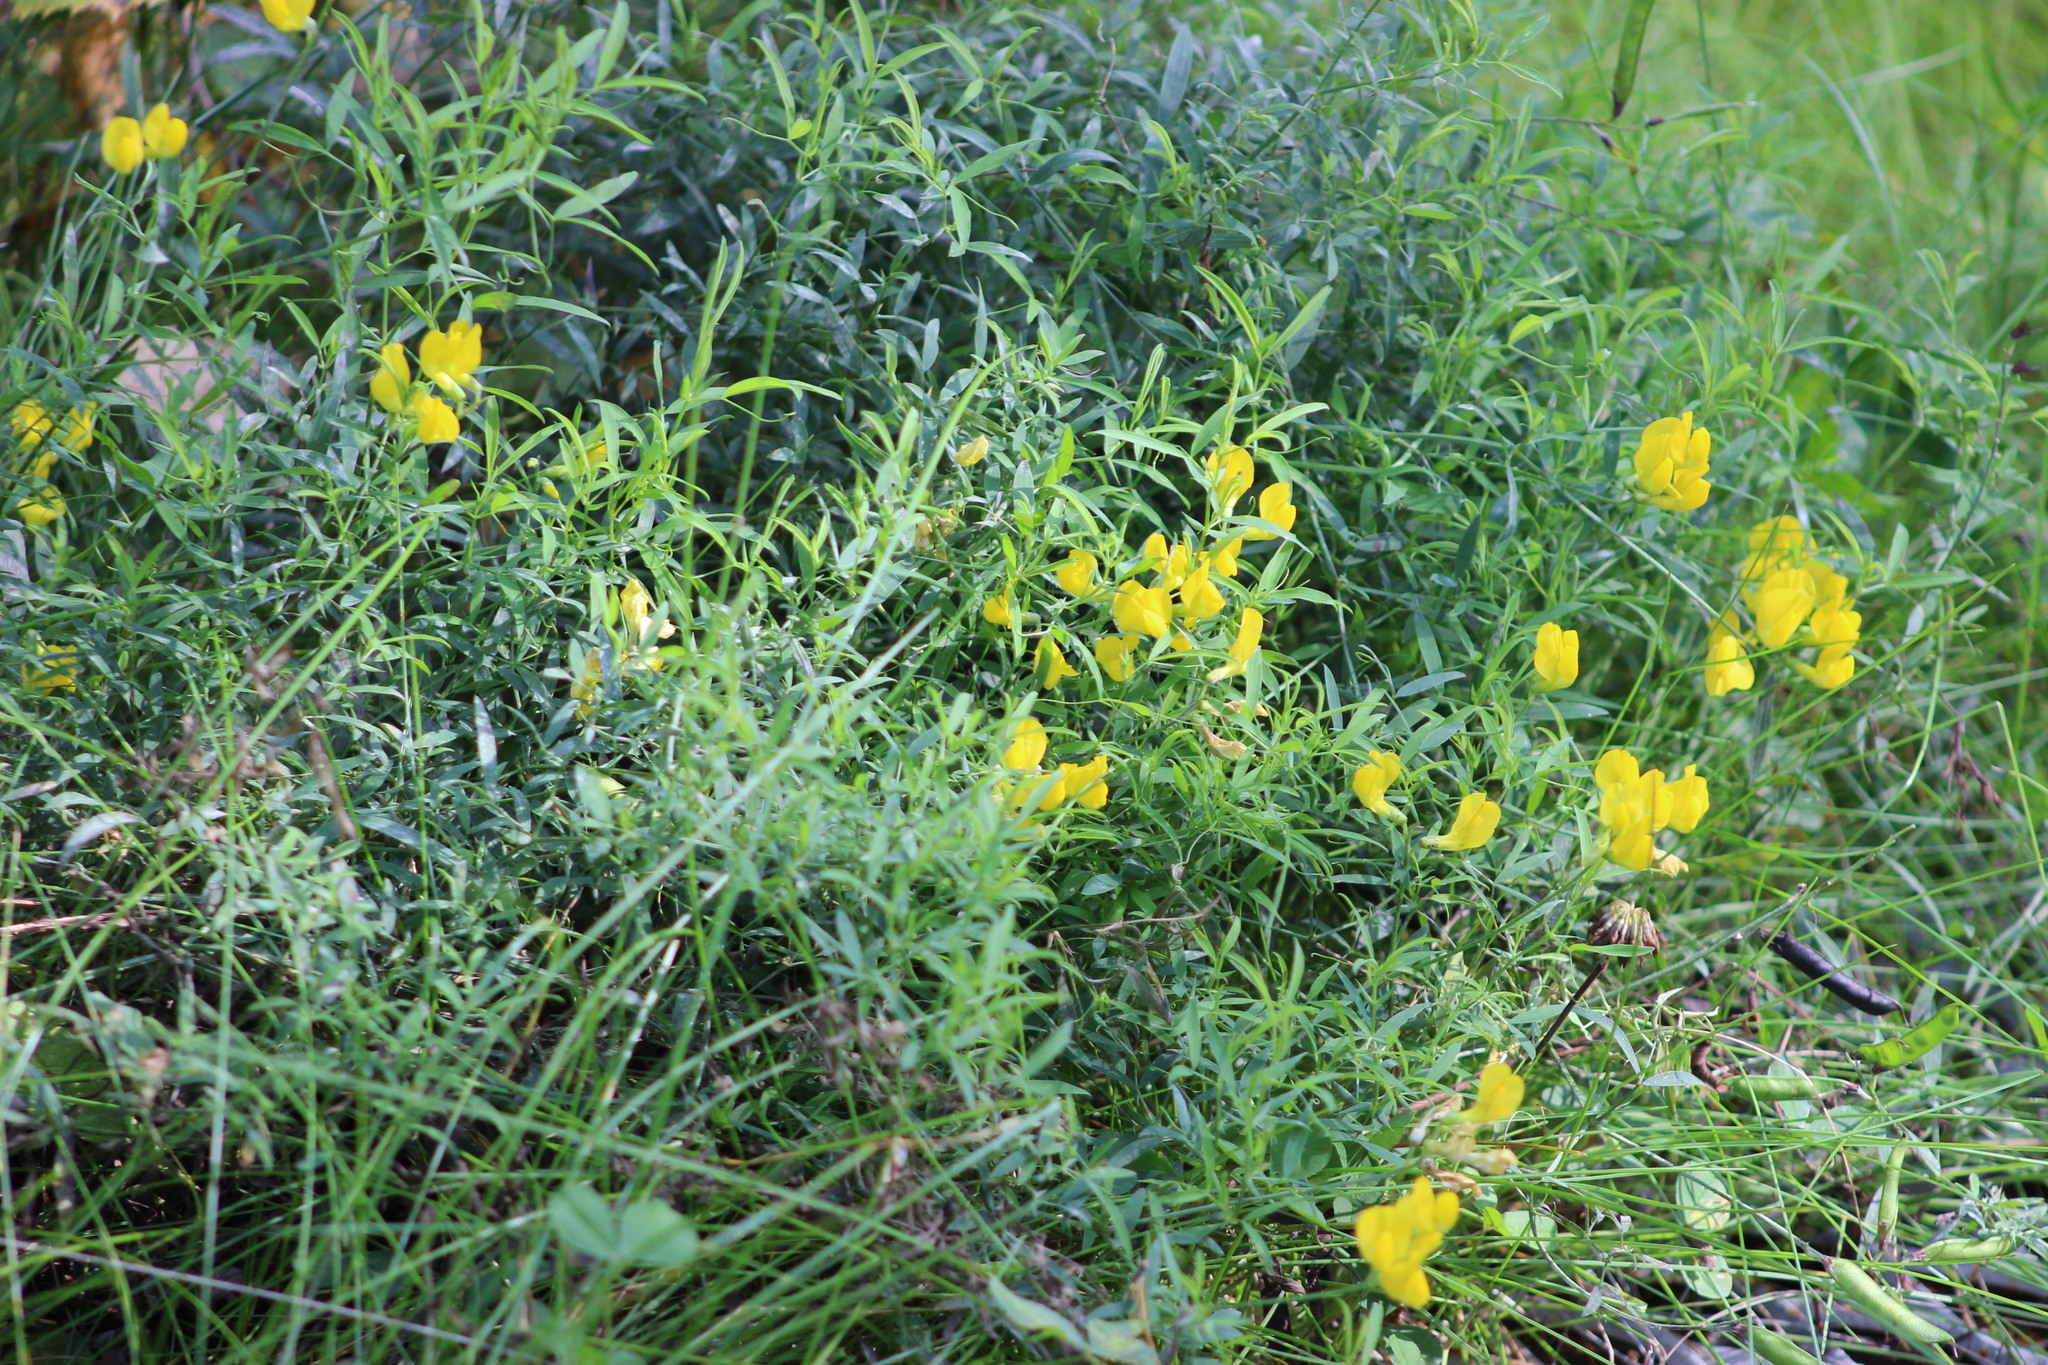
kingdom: Plantae
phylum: Tracheophyta
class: Magnoliopsida
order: Fabales
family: Fabaceae
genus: Lathyrus
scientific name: Lathyrus pratensis
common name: Meadow vetchling
